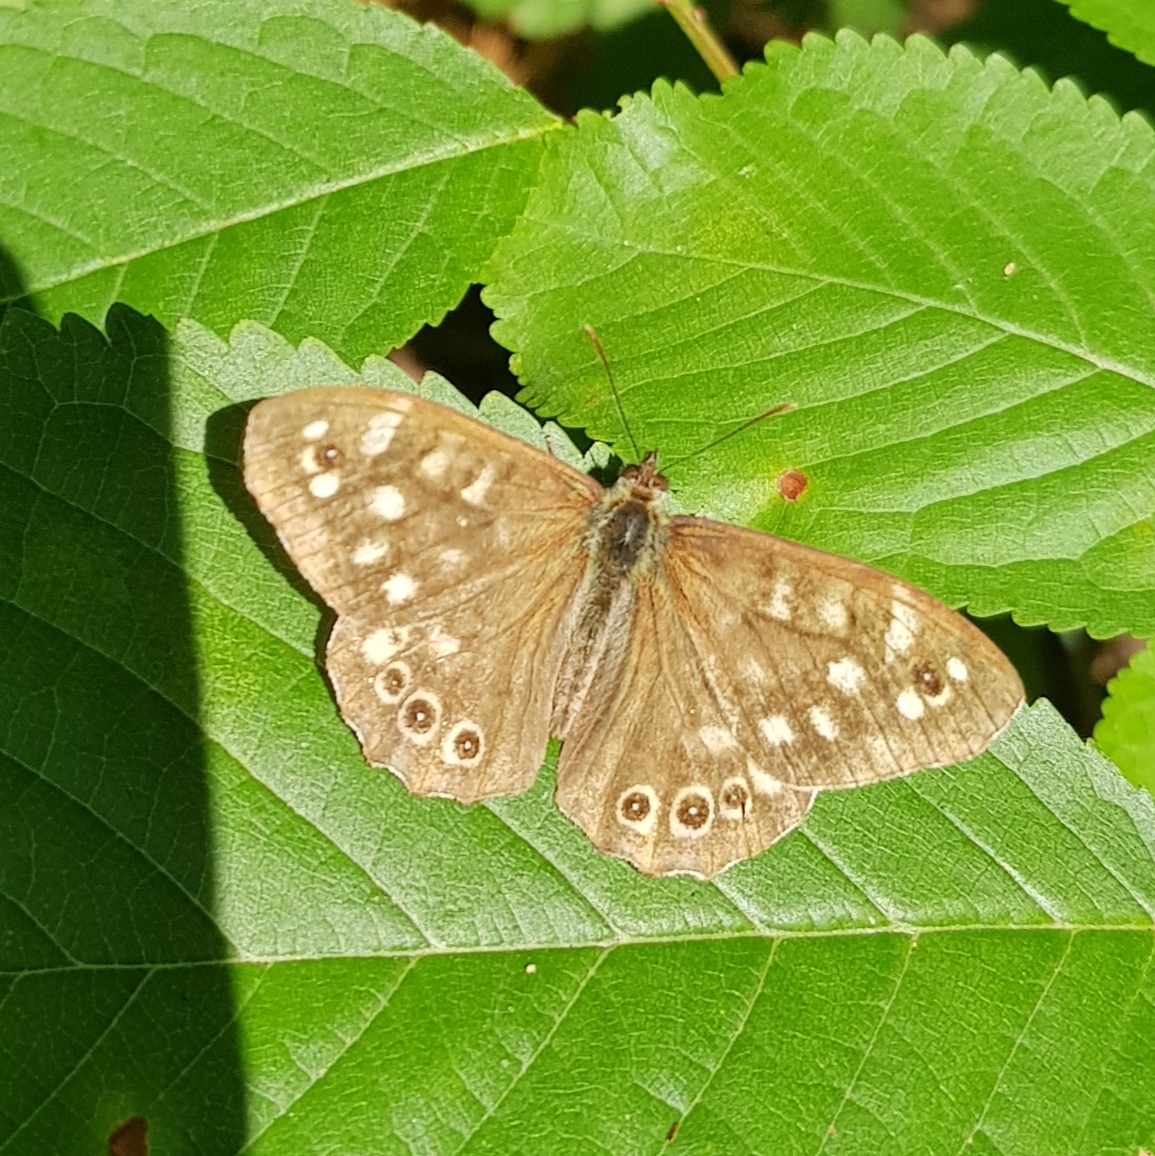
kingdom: Animalia
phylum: Arthropoda
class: Insecta
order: Lepidoptera
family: Nymphalidae
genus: Pararge
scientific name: Pararge aegeria
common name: Speckled wood
